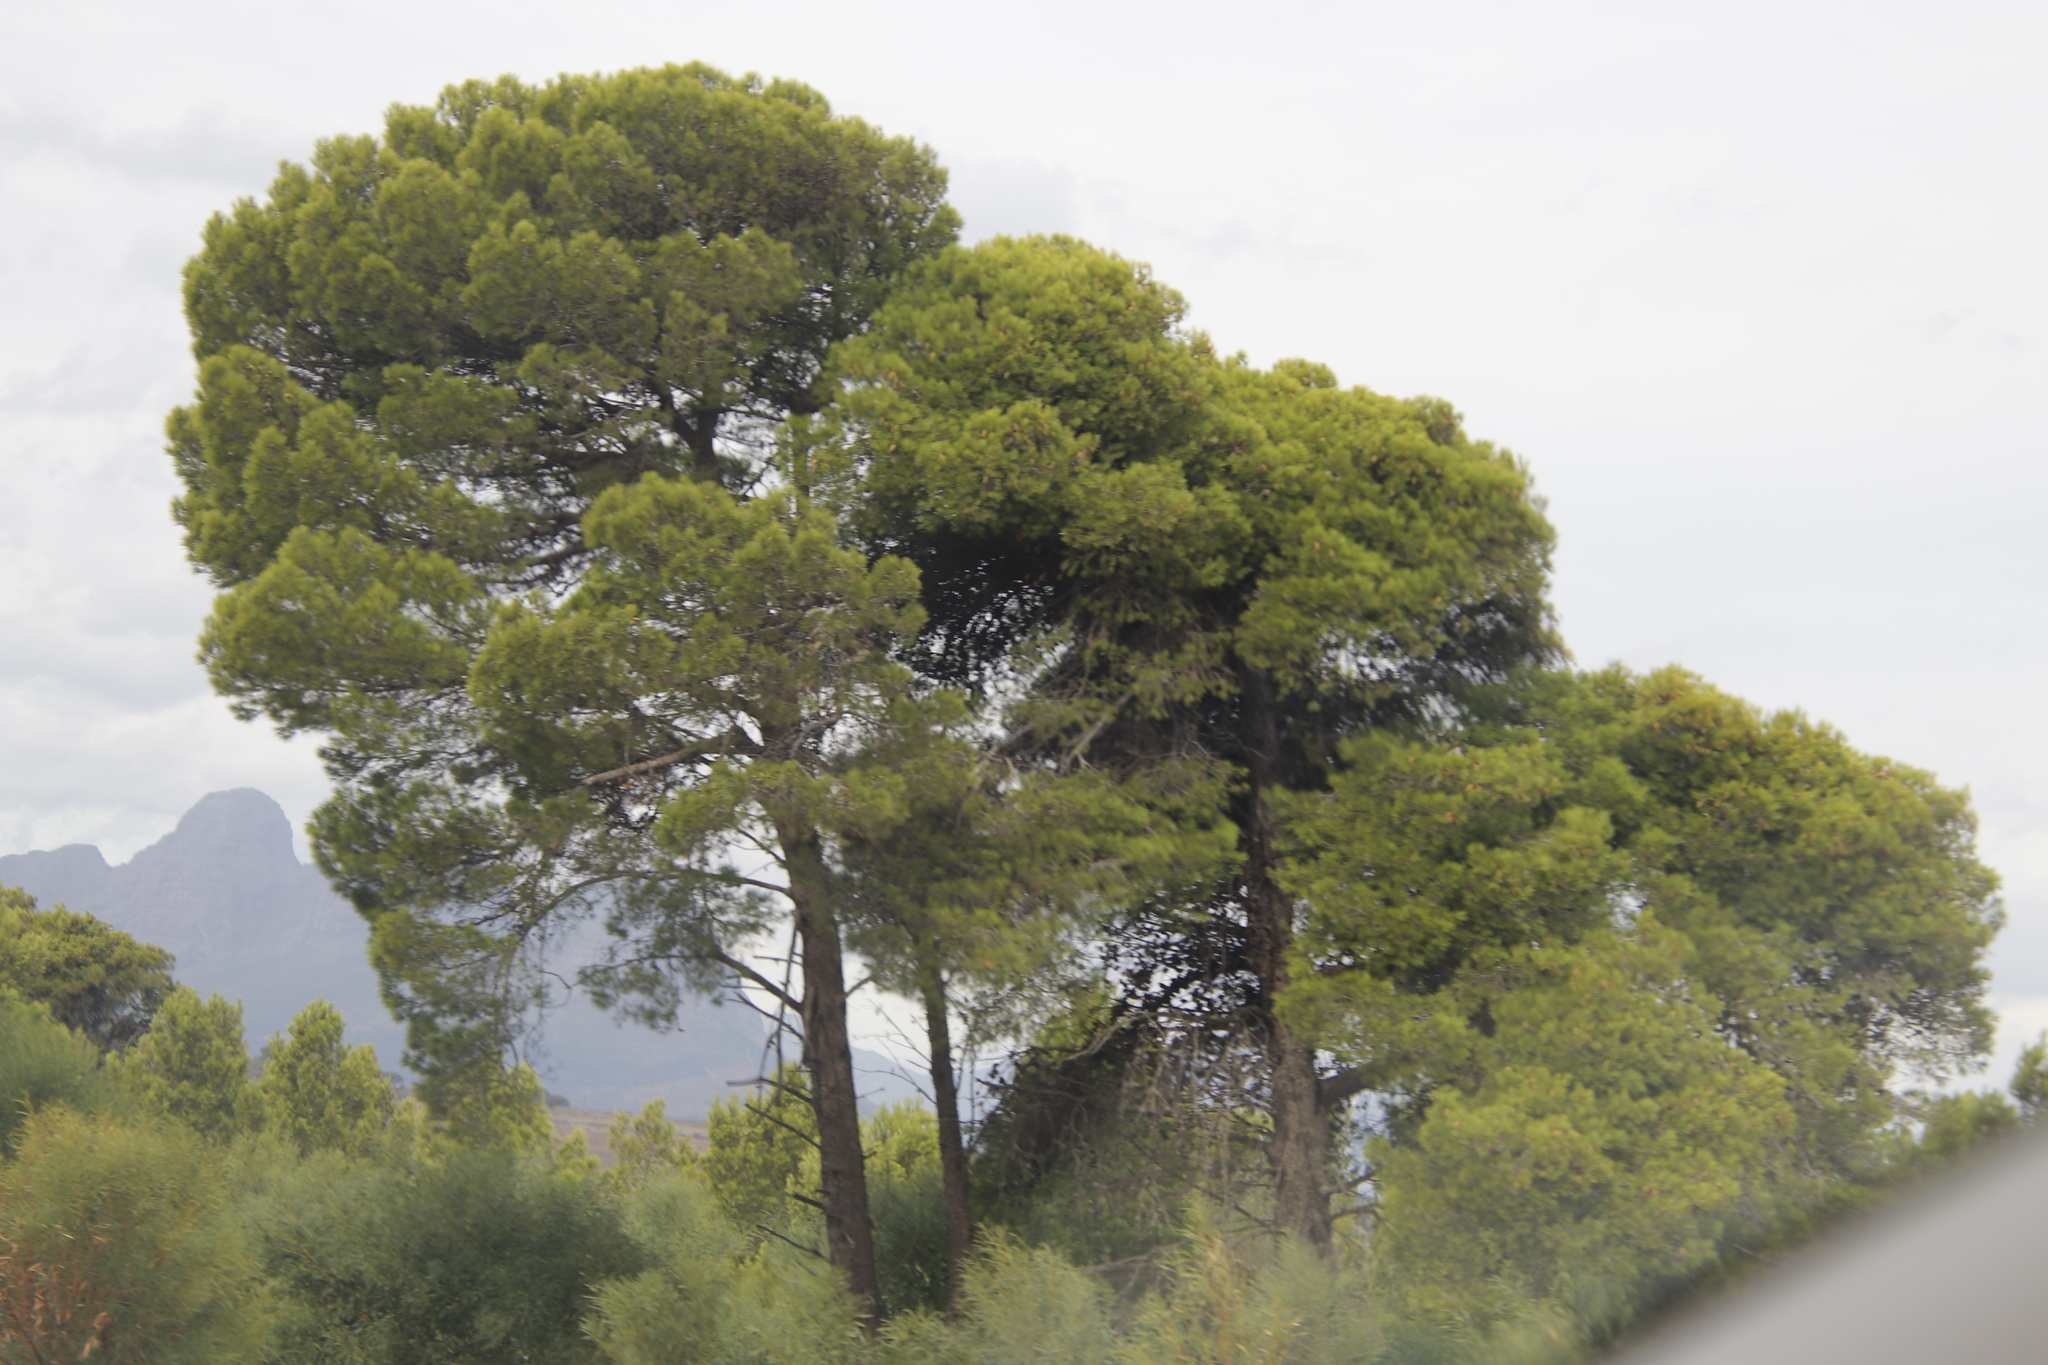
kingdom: Plantae
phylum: Tracheophyta
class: Pinopsida
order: Pinales
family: Pinaceae
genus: Pinus
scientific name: Pinus halepensis
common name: Aleppo pine
